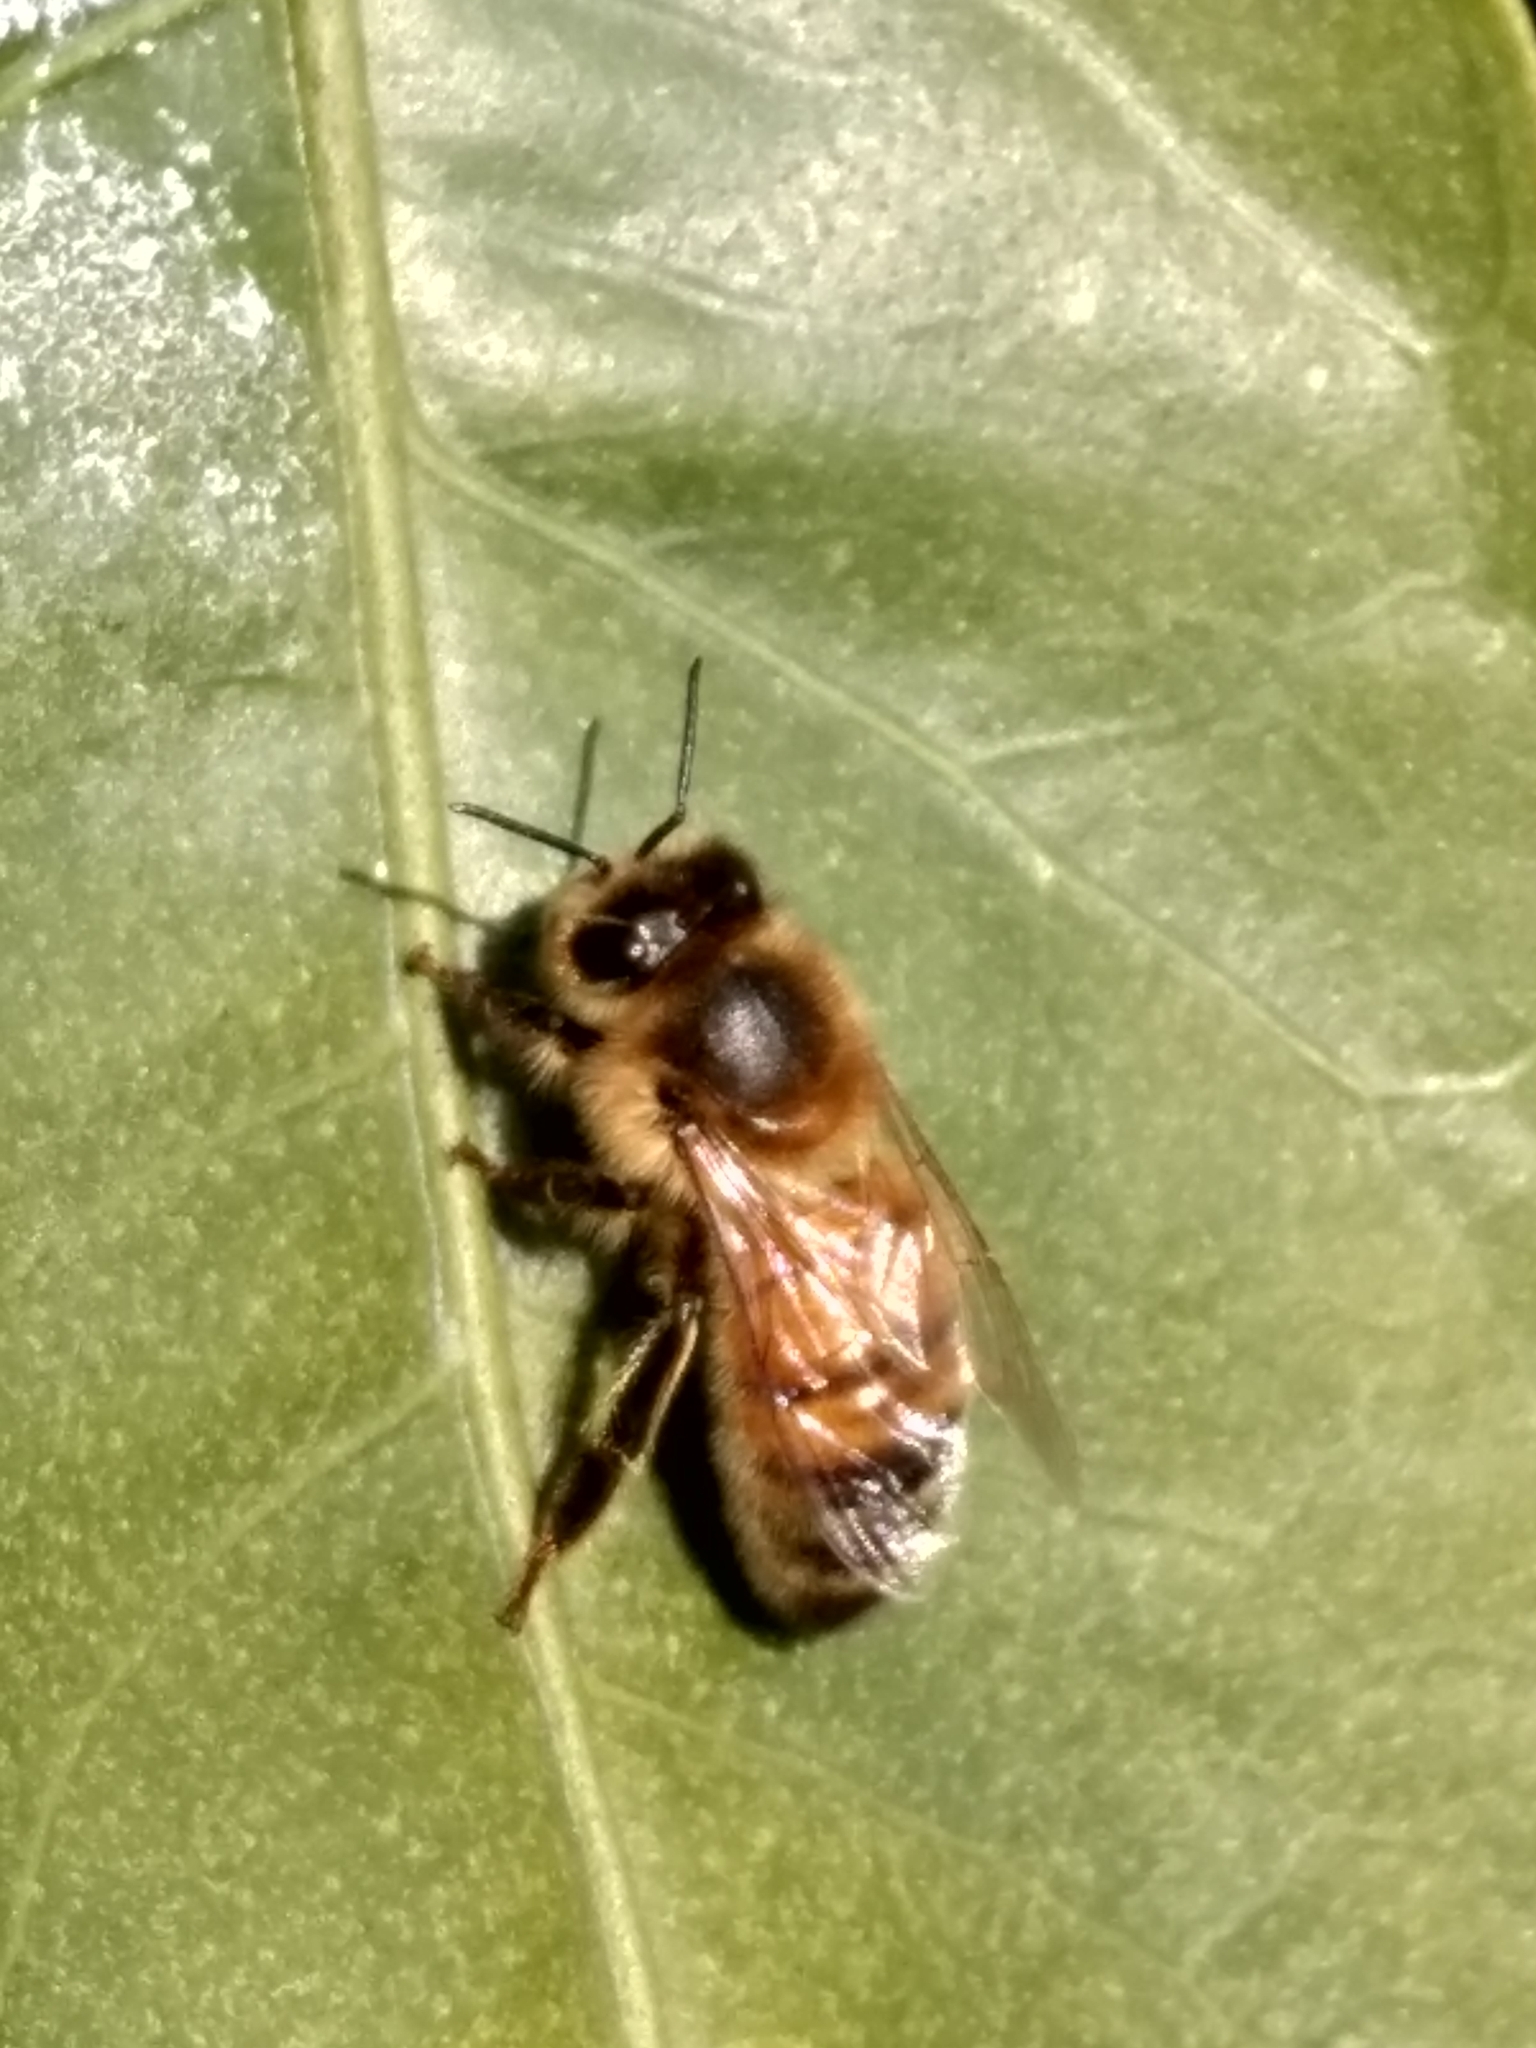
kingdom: Animalia
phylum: Arthropoda
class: Insecta
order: Hymenoptera
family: Apidae
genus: Apis
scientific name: Apis mellifera
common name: Honey bee
